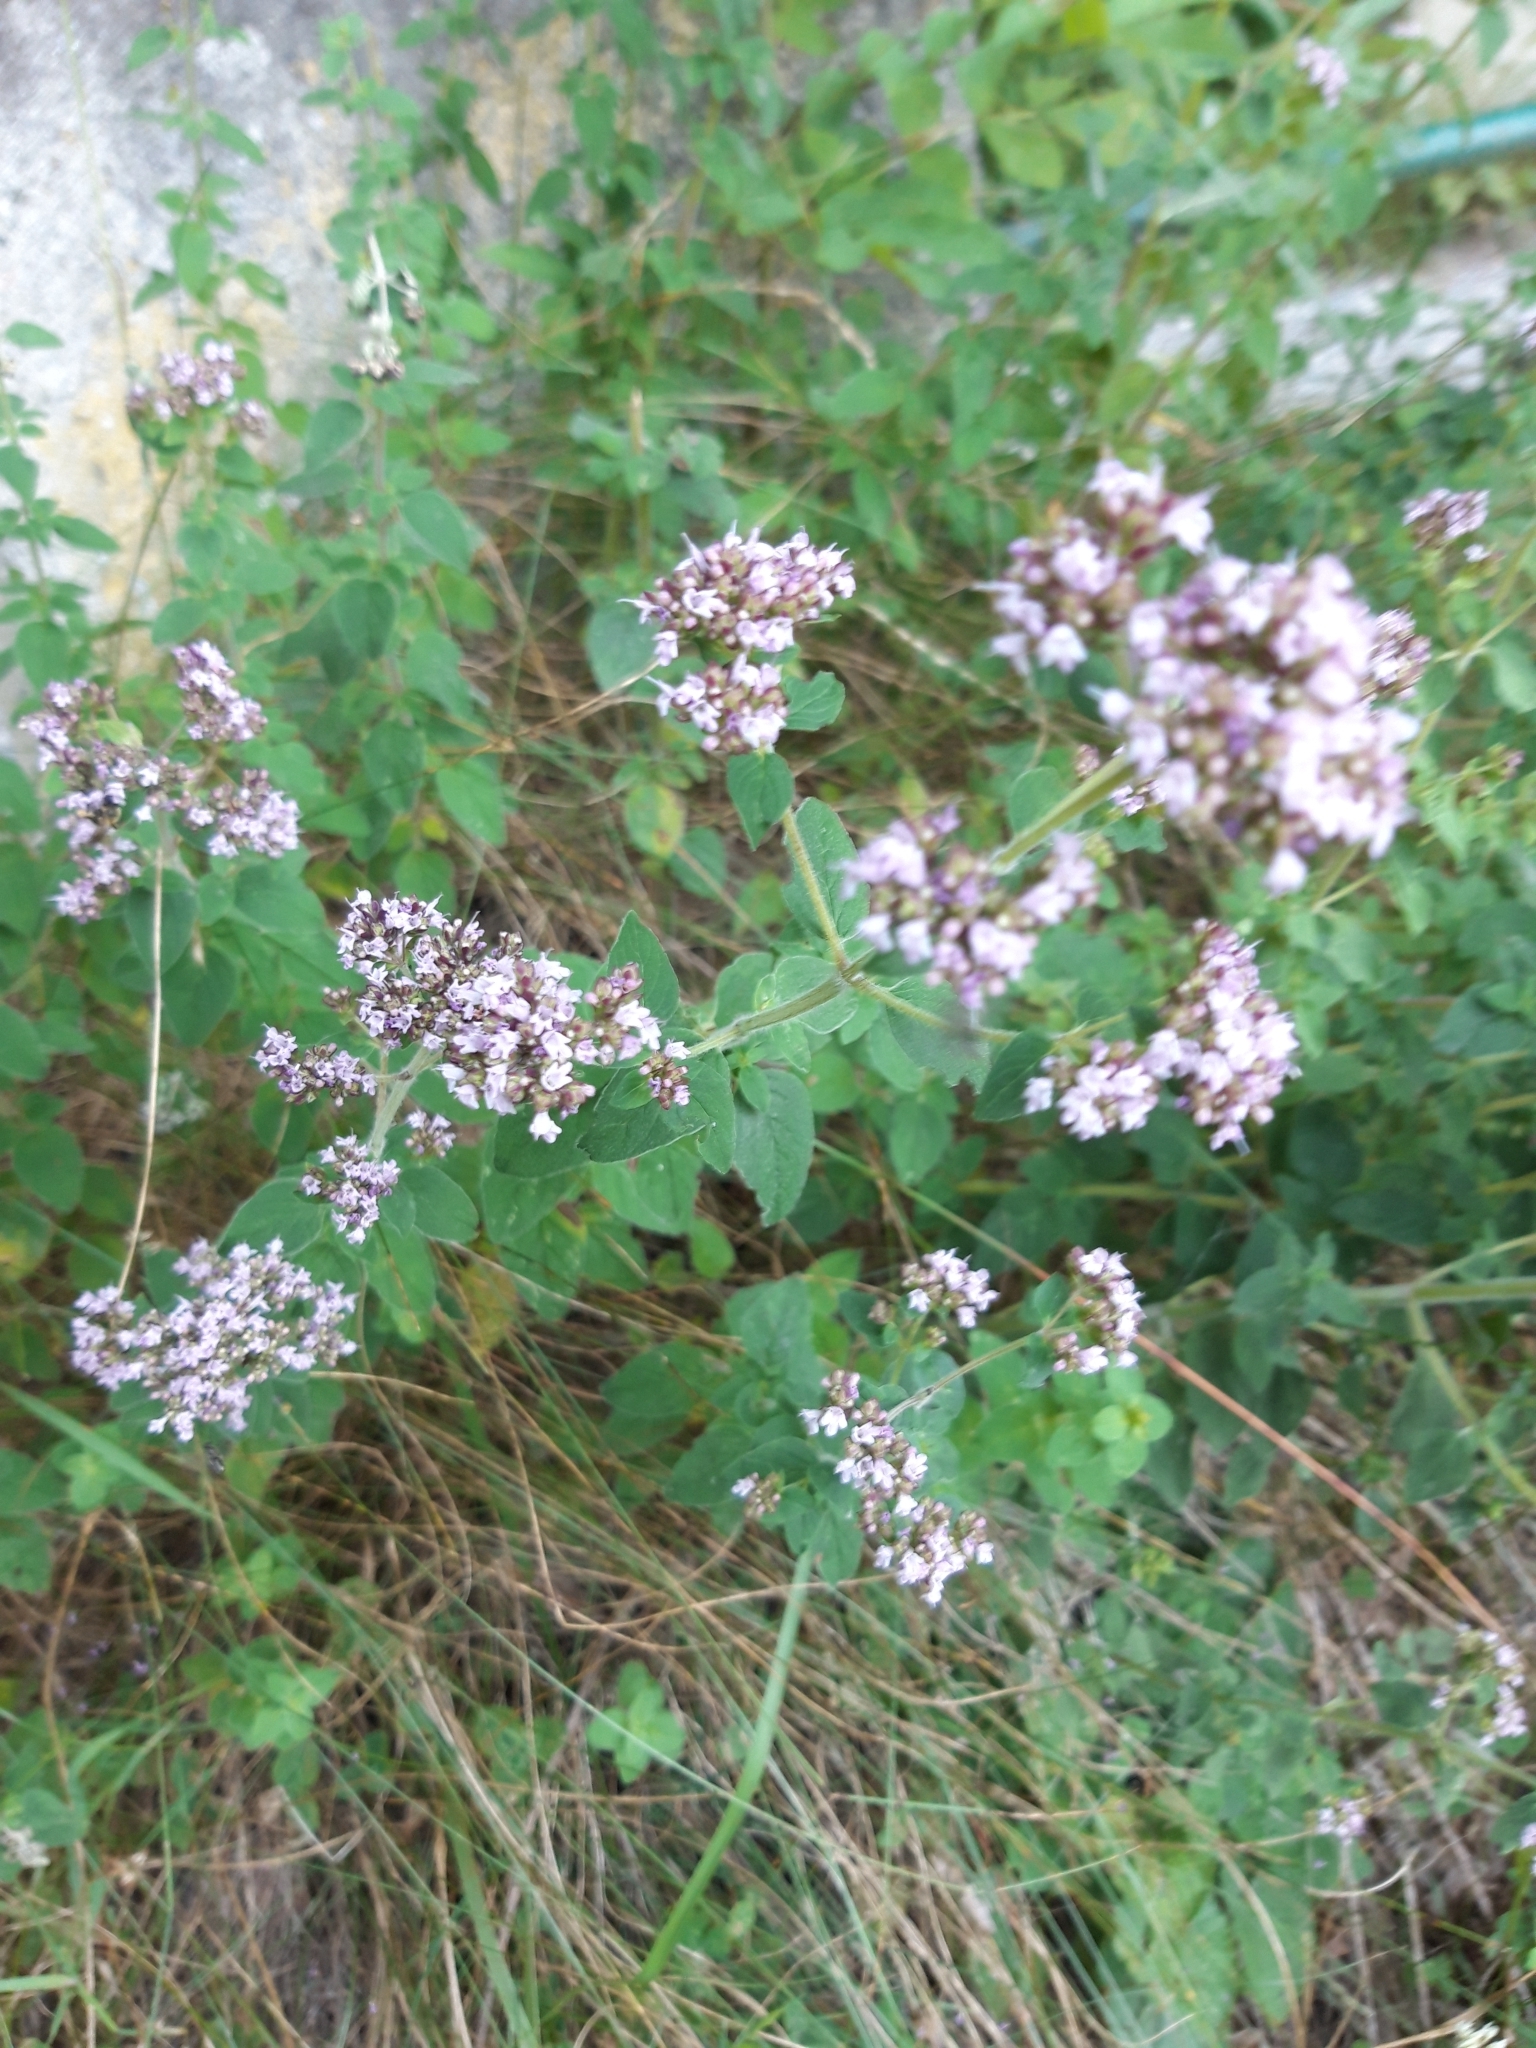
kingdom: Plantae
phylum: Tracheophyta
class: Magnoliopsida
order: Lamiales
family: Lamiaceae
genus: Origanum
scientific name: Origanum vulgare
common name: Wild marjoram
